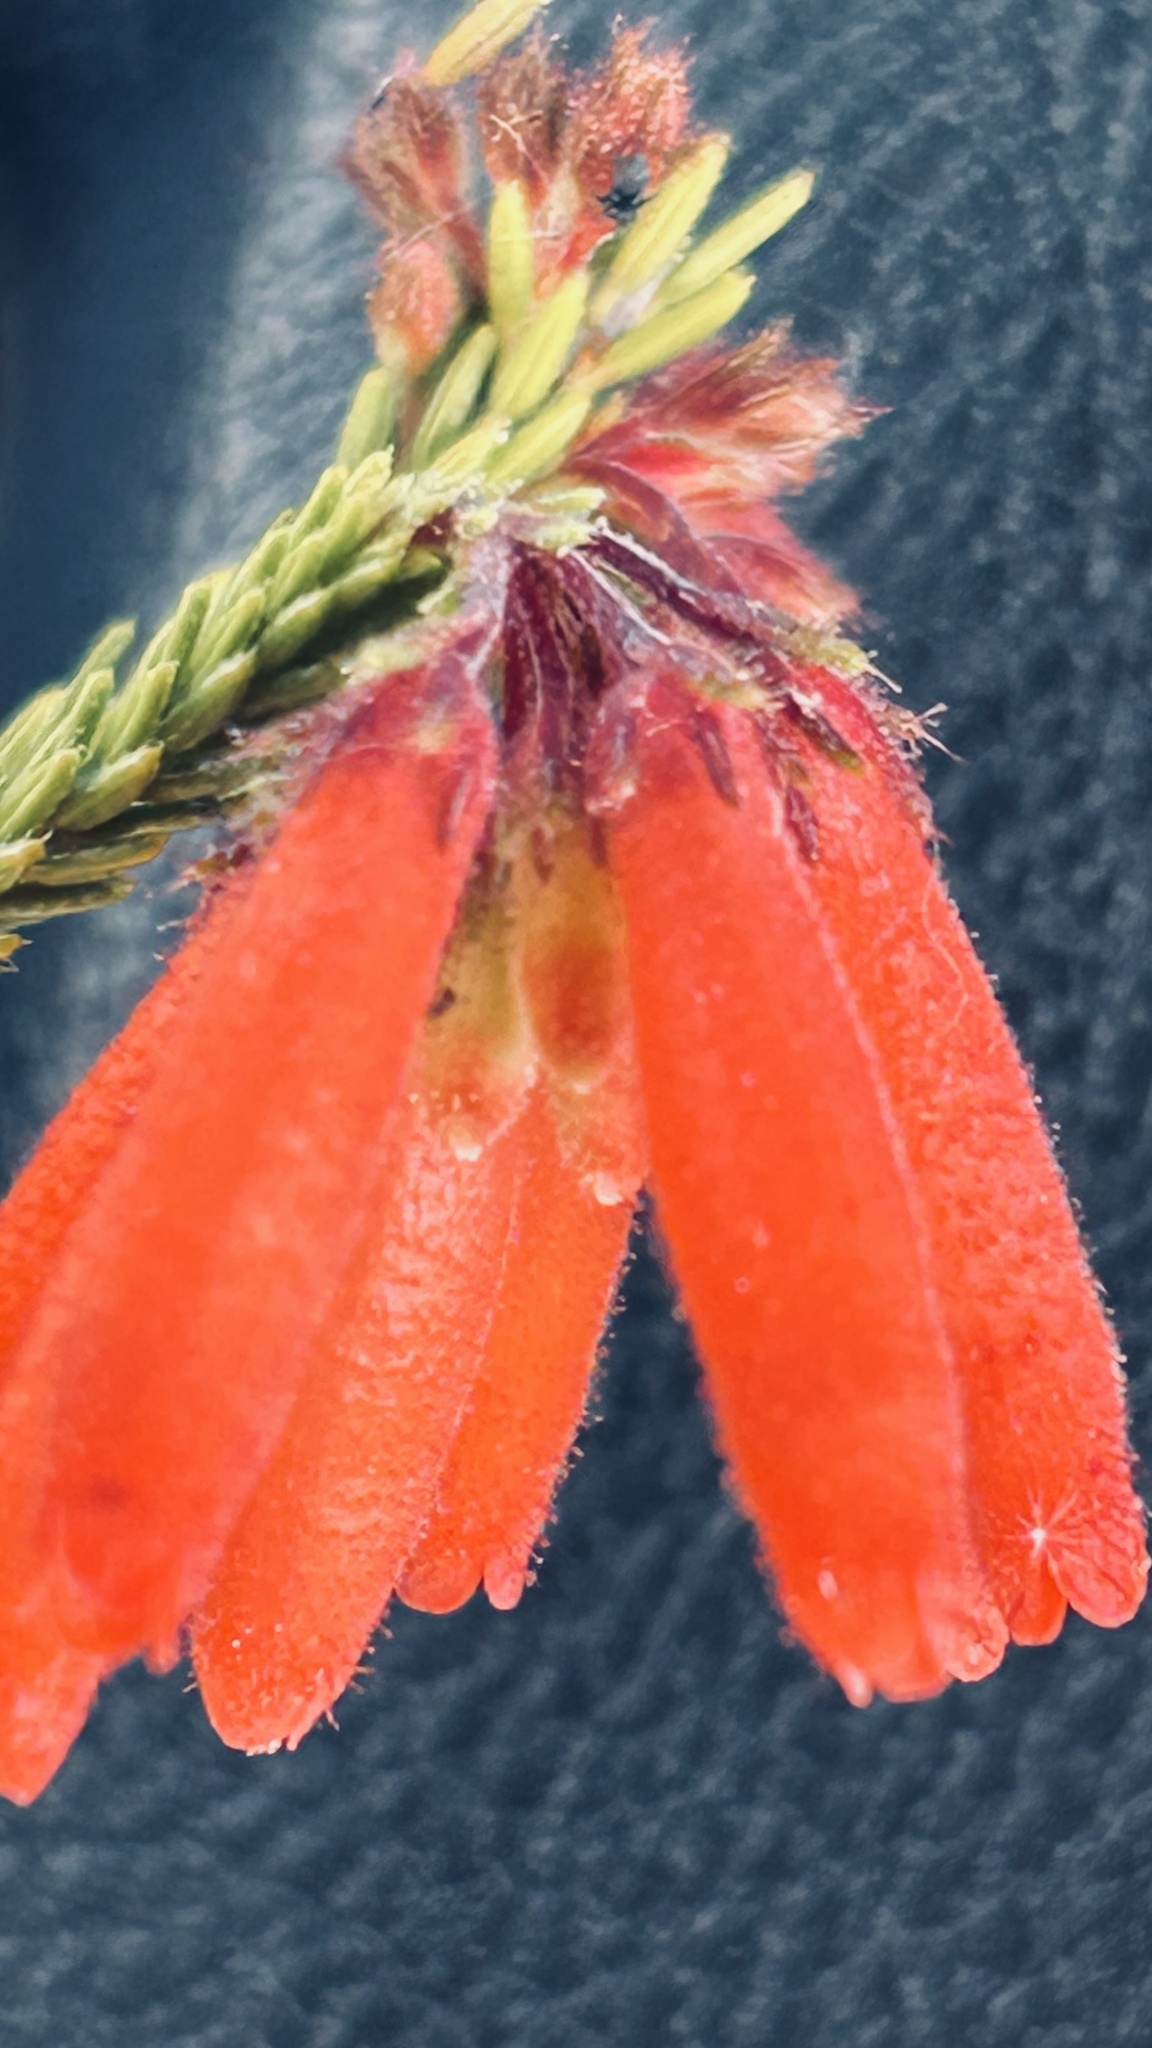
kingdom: Plantae
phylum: Tracheophyta
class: Magnoliopsida
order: Ericales
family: Ericaceae
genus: Erica
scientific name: Erica cerinthoides
